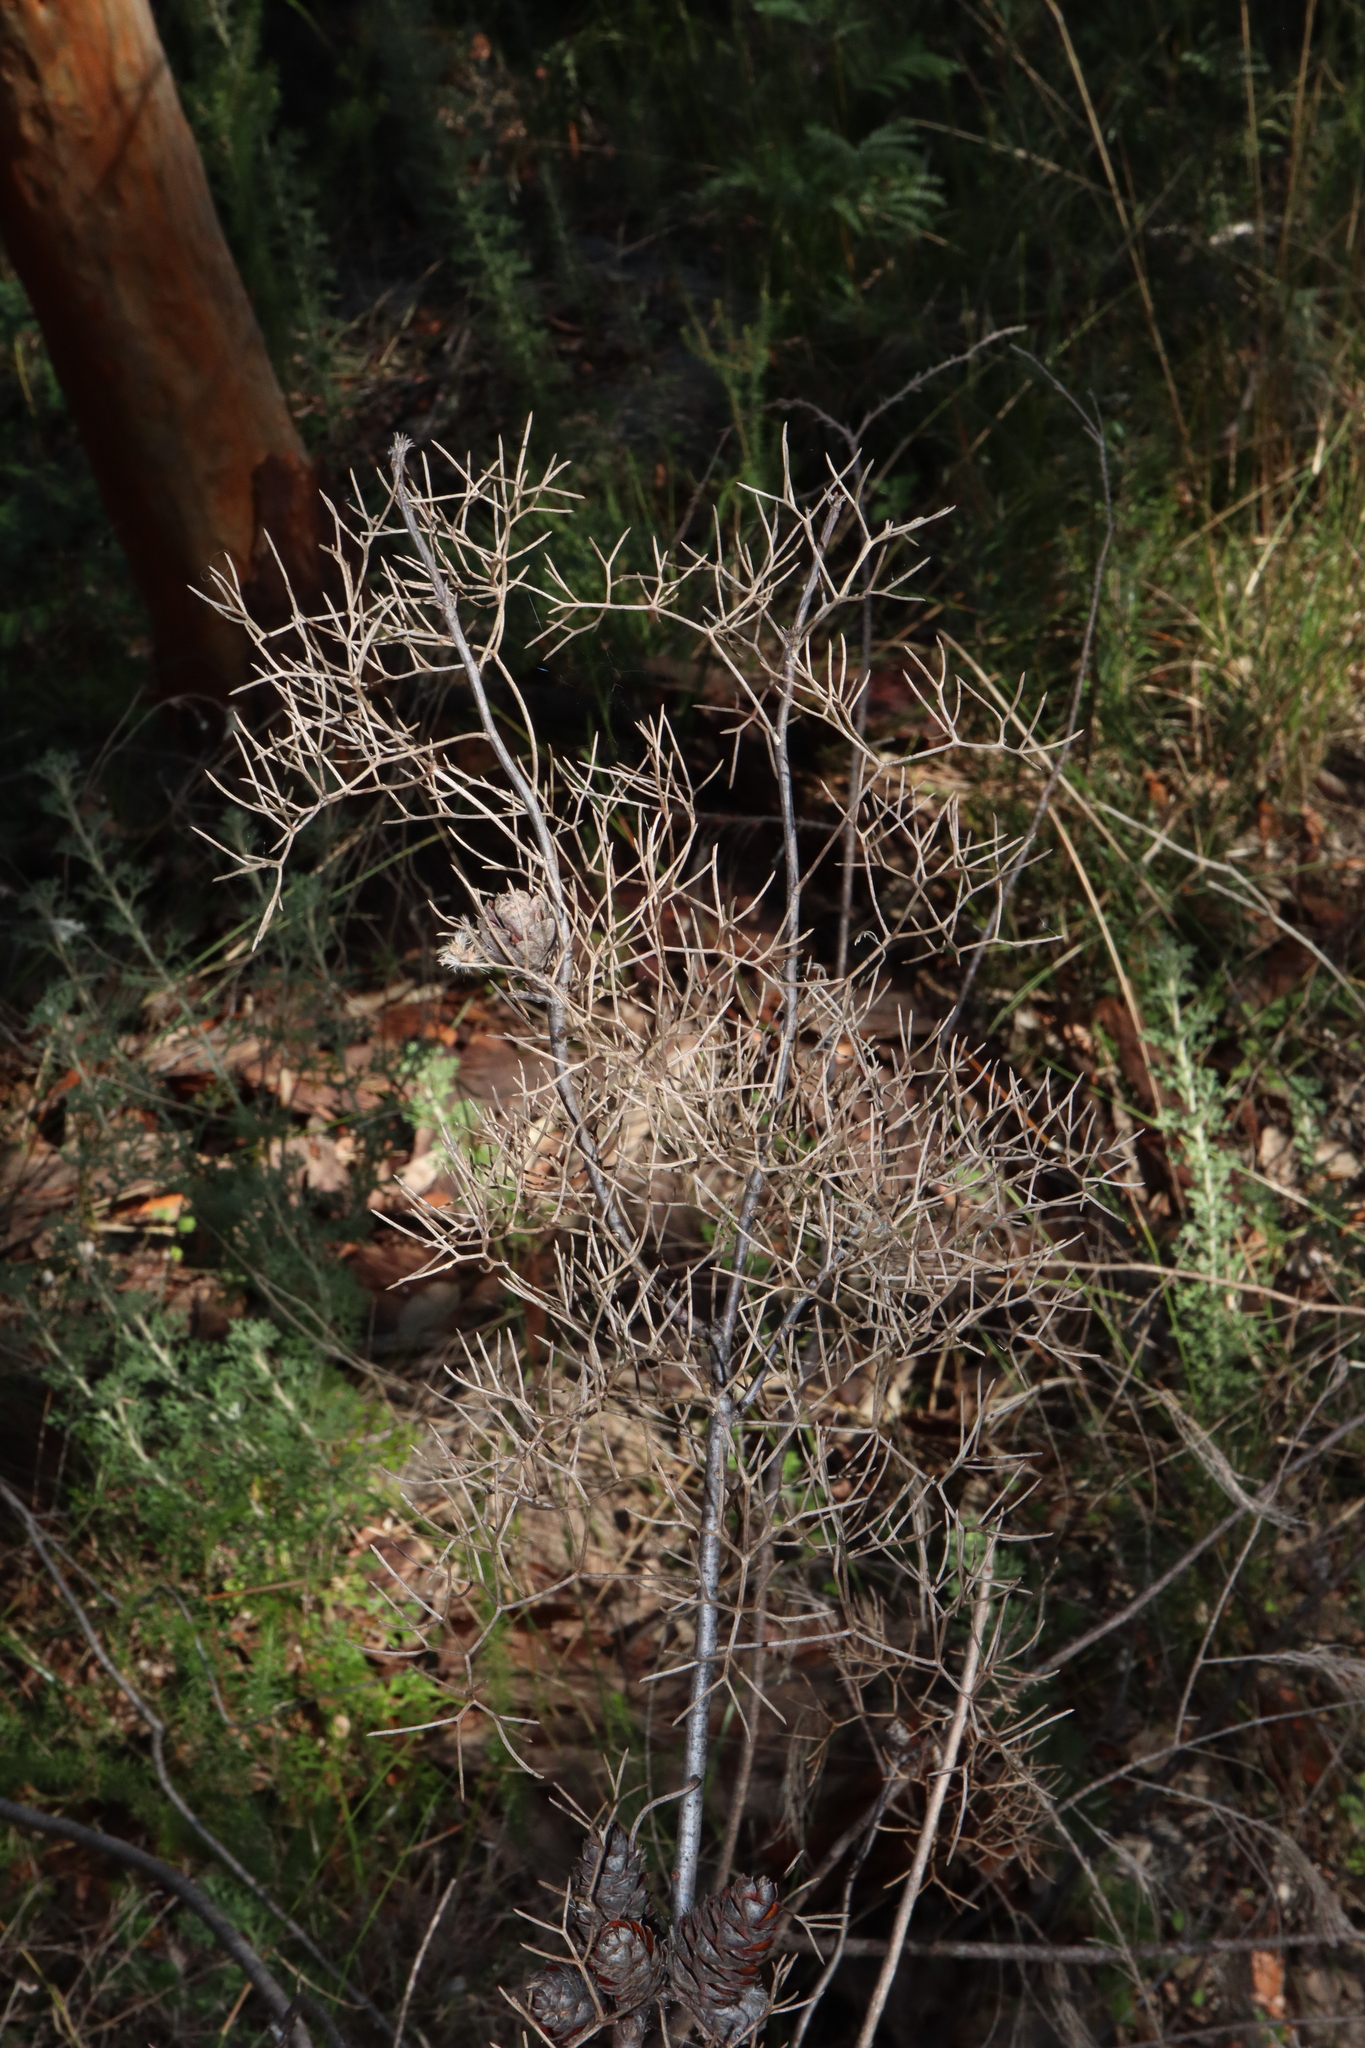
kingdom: Plantae
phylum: Tracheophyta
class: Magnoliopsida
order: Proteales
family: Proteaceae
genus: Petrophile
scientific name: Petrophile pulchella
